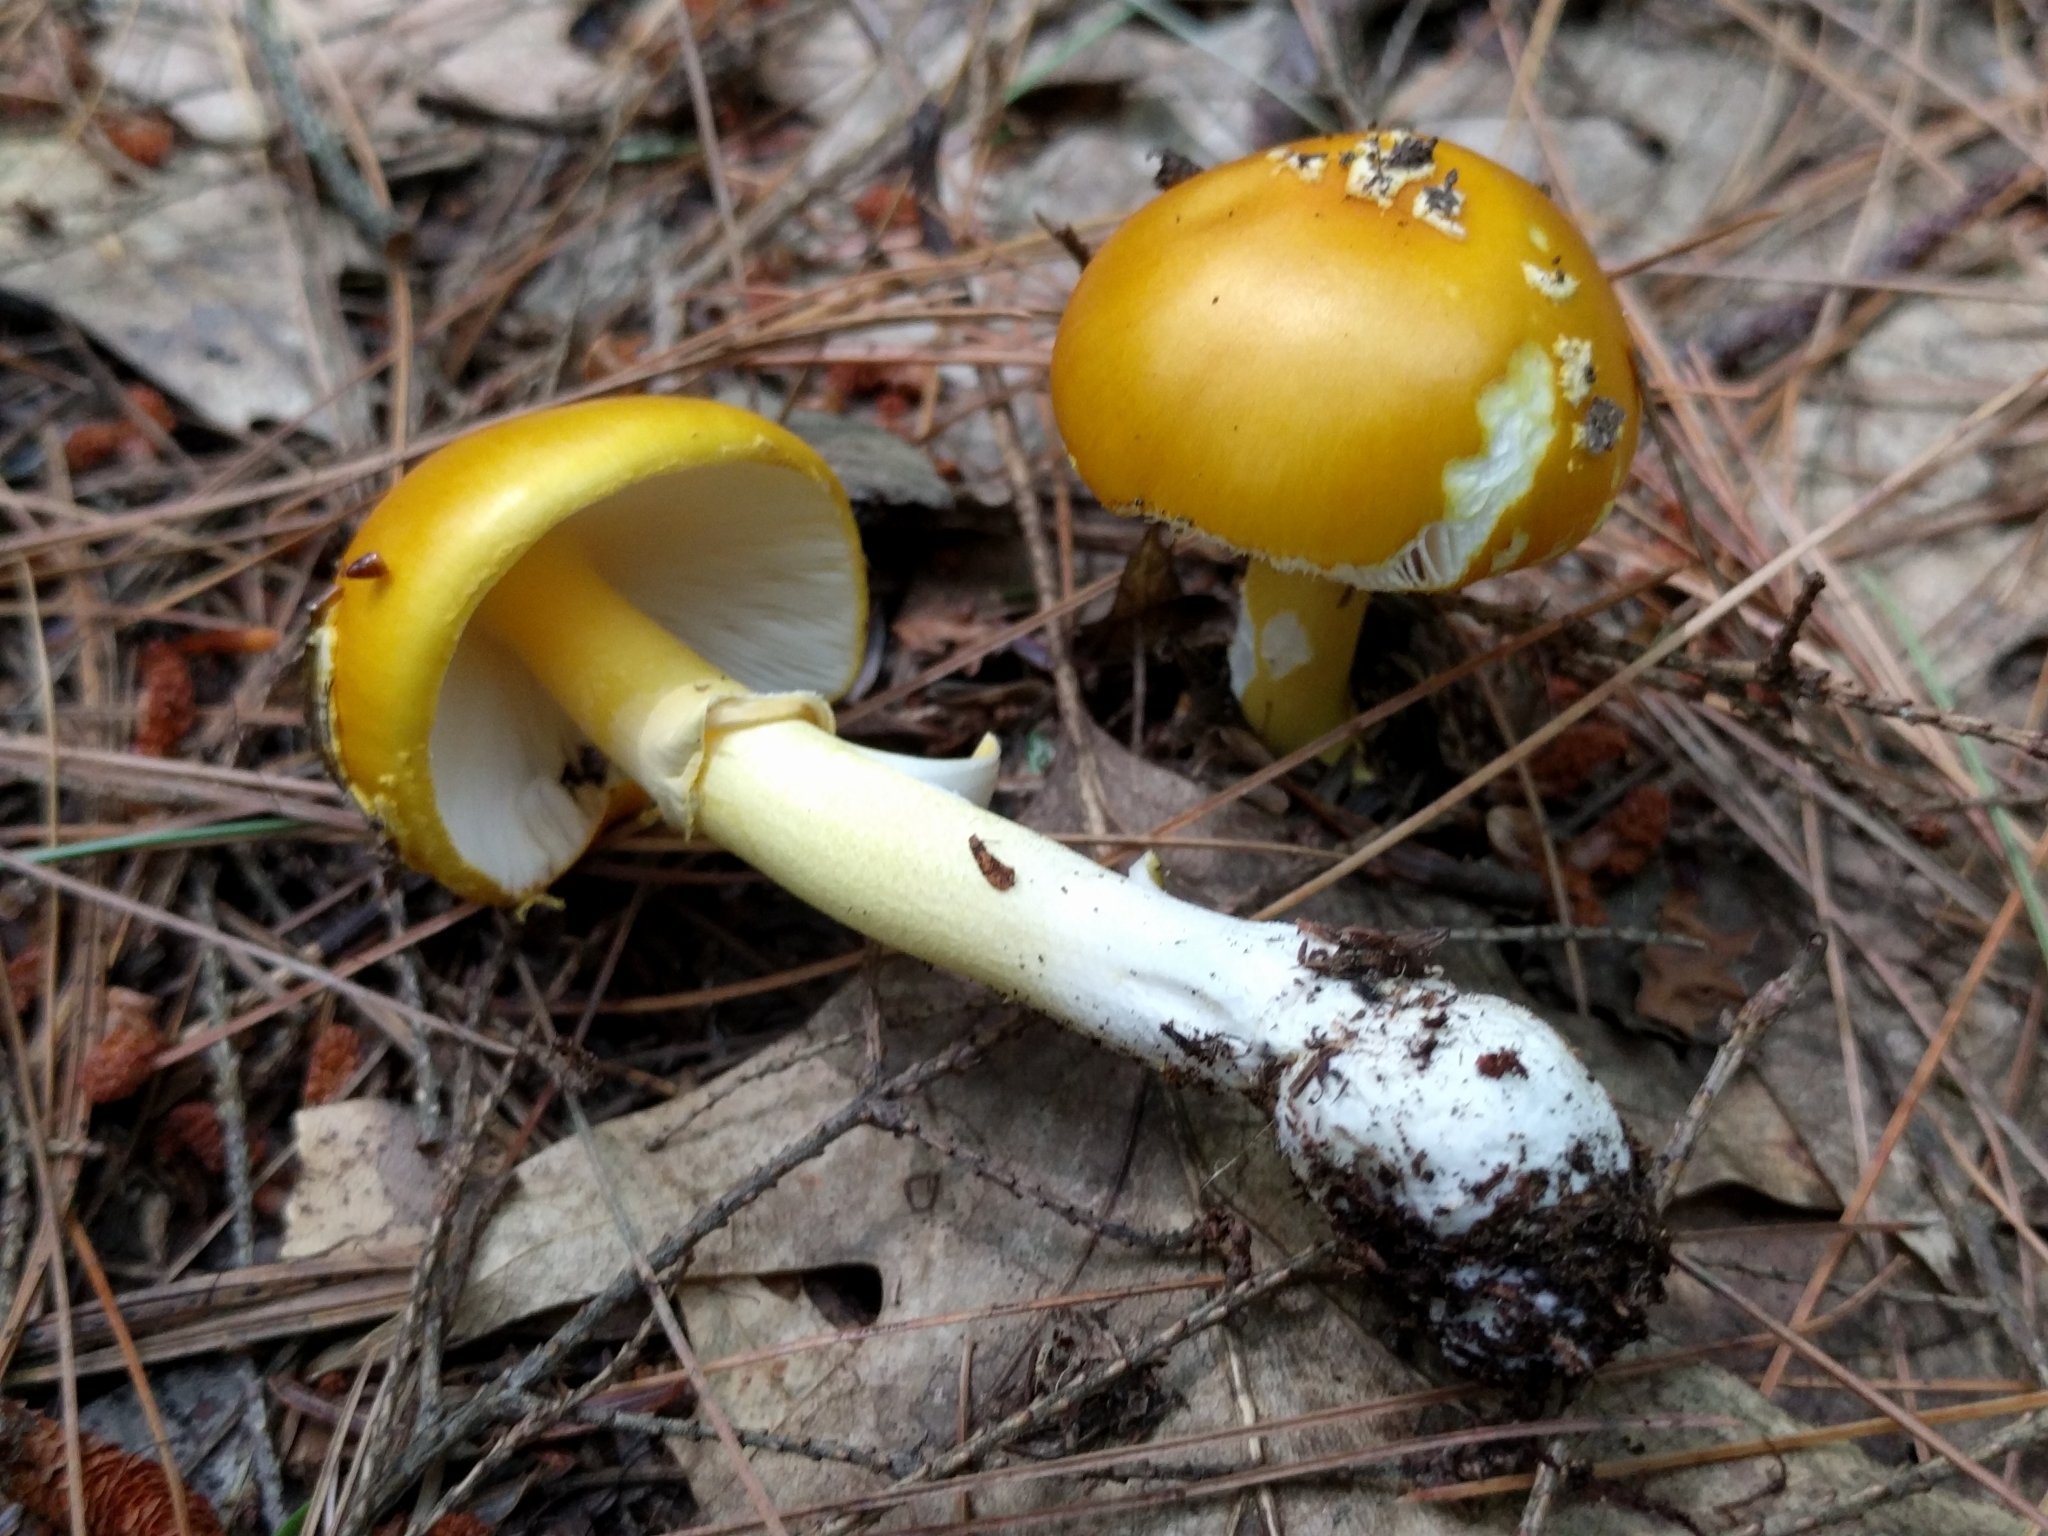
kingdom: Fungi
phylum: Basidiomycota
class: Agaricomycetes
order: Agaricales
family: Amanitaceae
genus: Amanita
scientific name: Amanita flavoconia
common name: Yellow patches
